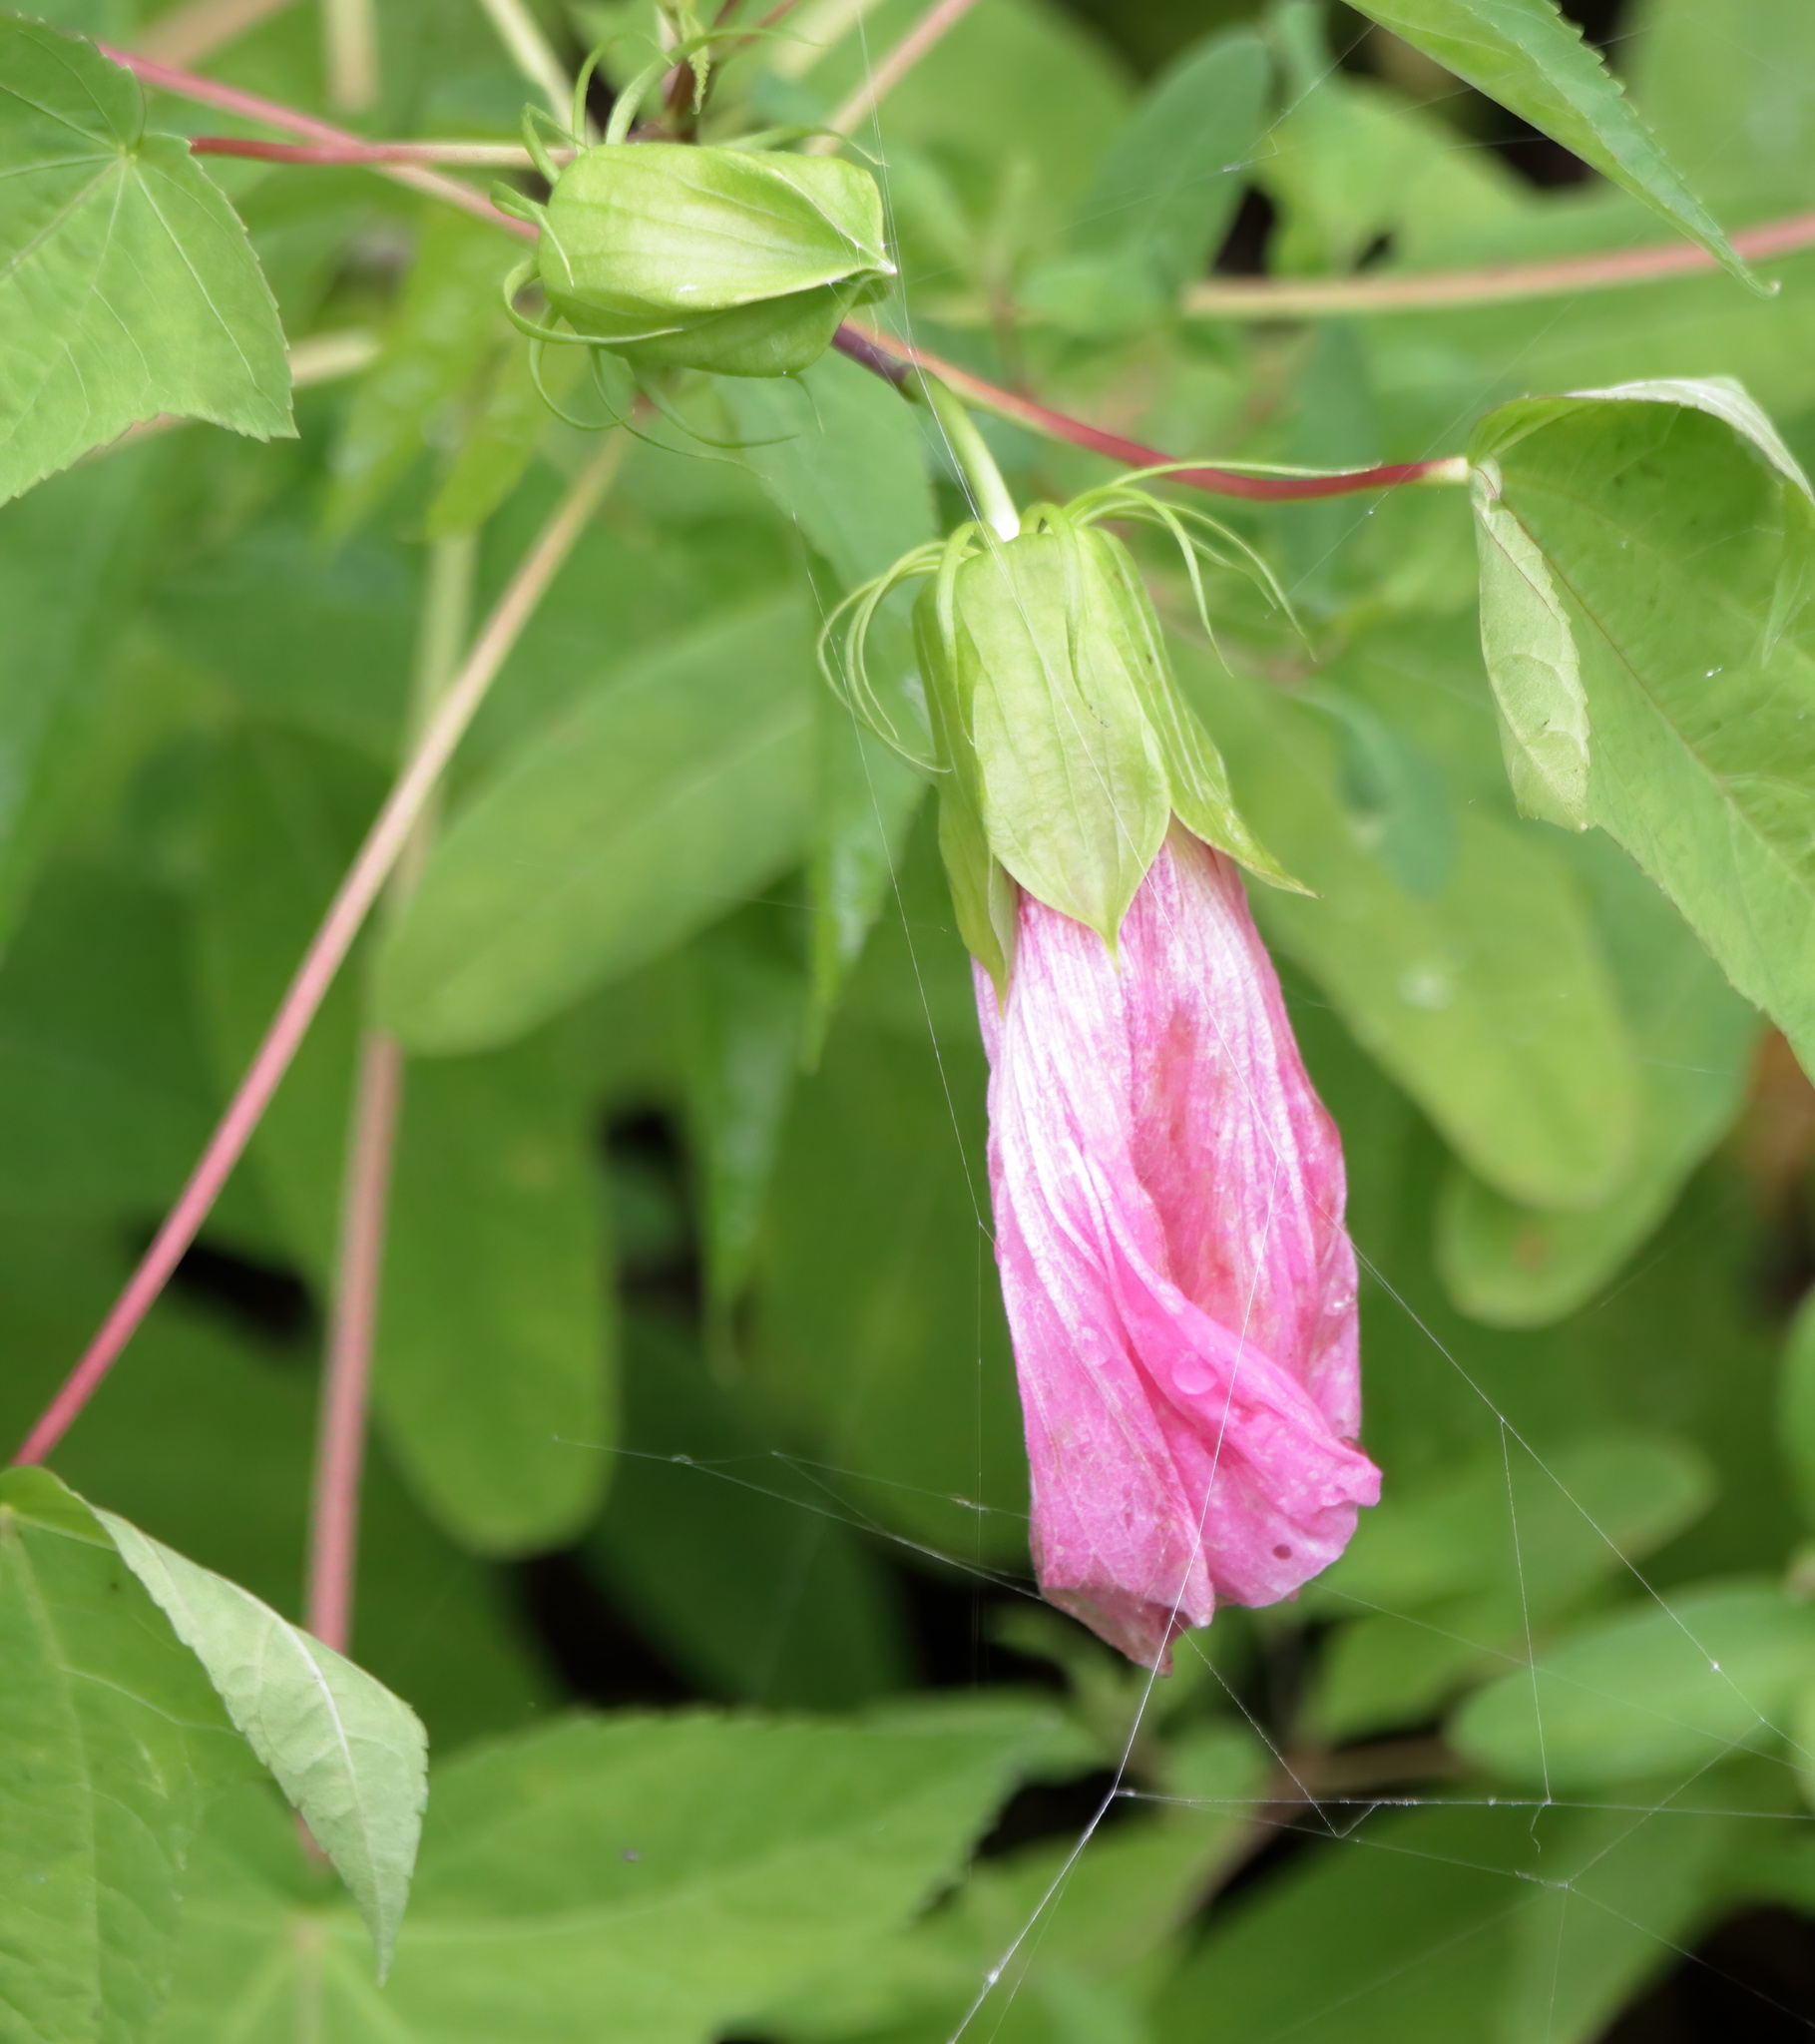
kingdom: Plantae
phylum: Tracheophyta
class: Magnoliopsida
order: Malvales
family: Malvaceae
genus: Hibiscus
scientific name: Hibiscus laevis
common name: Scarlet rose-mallow
